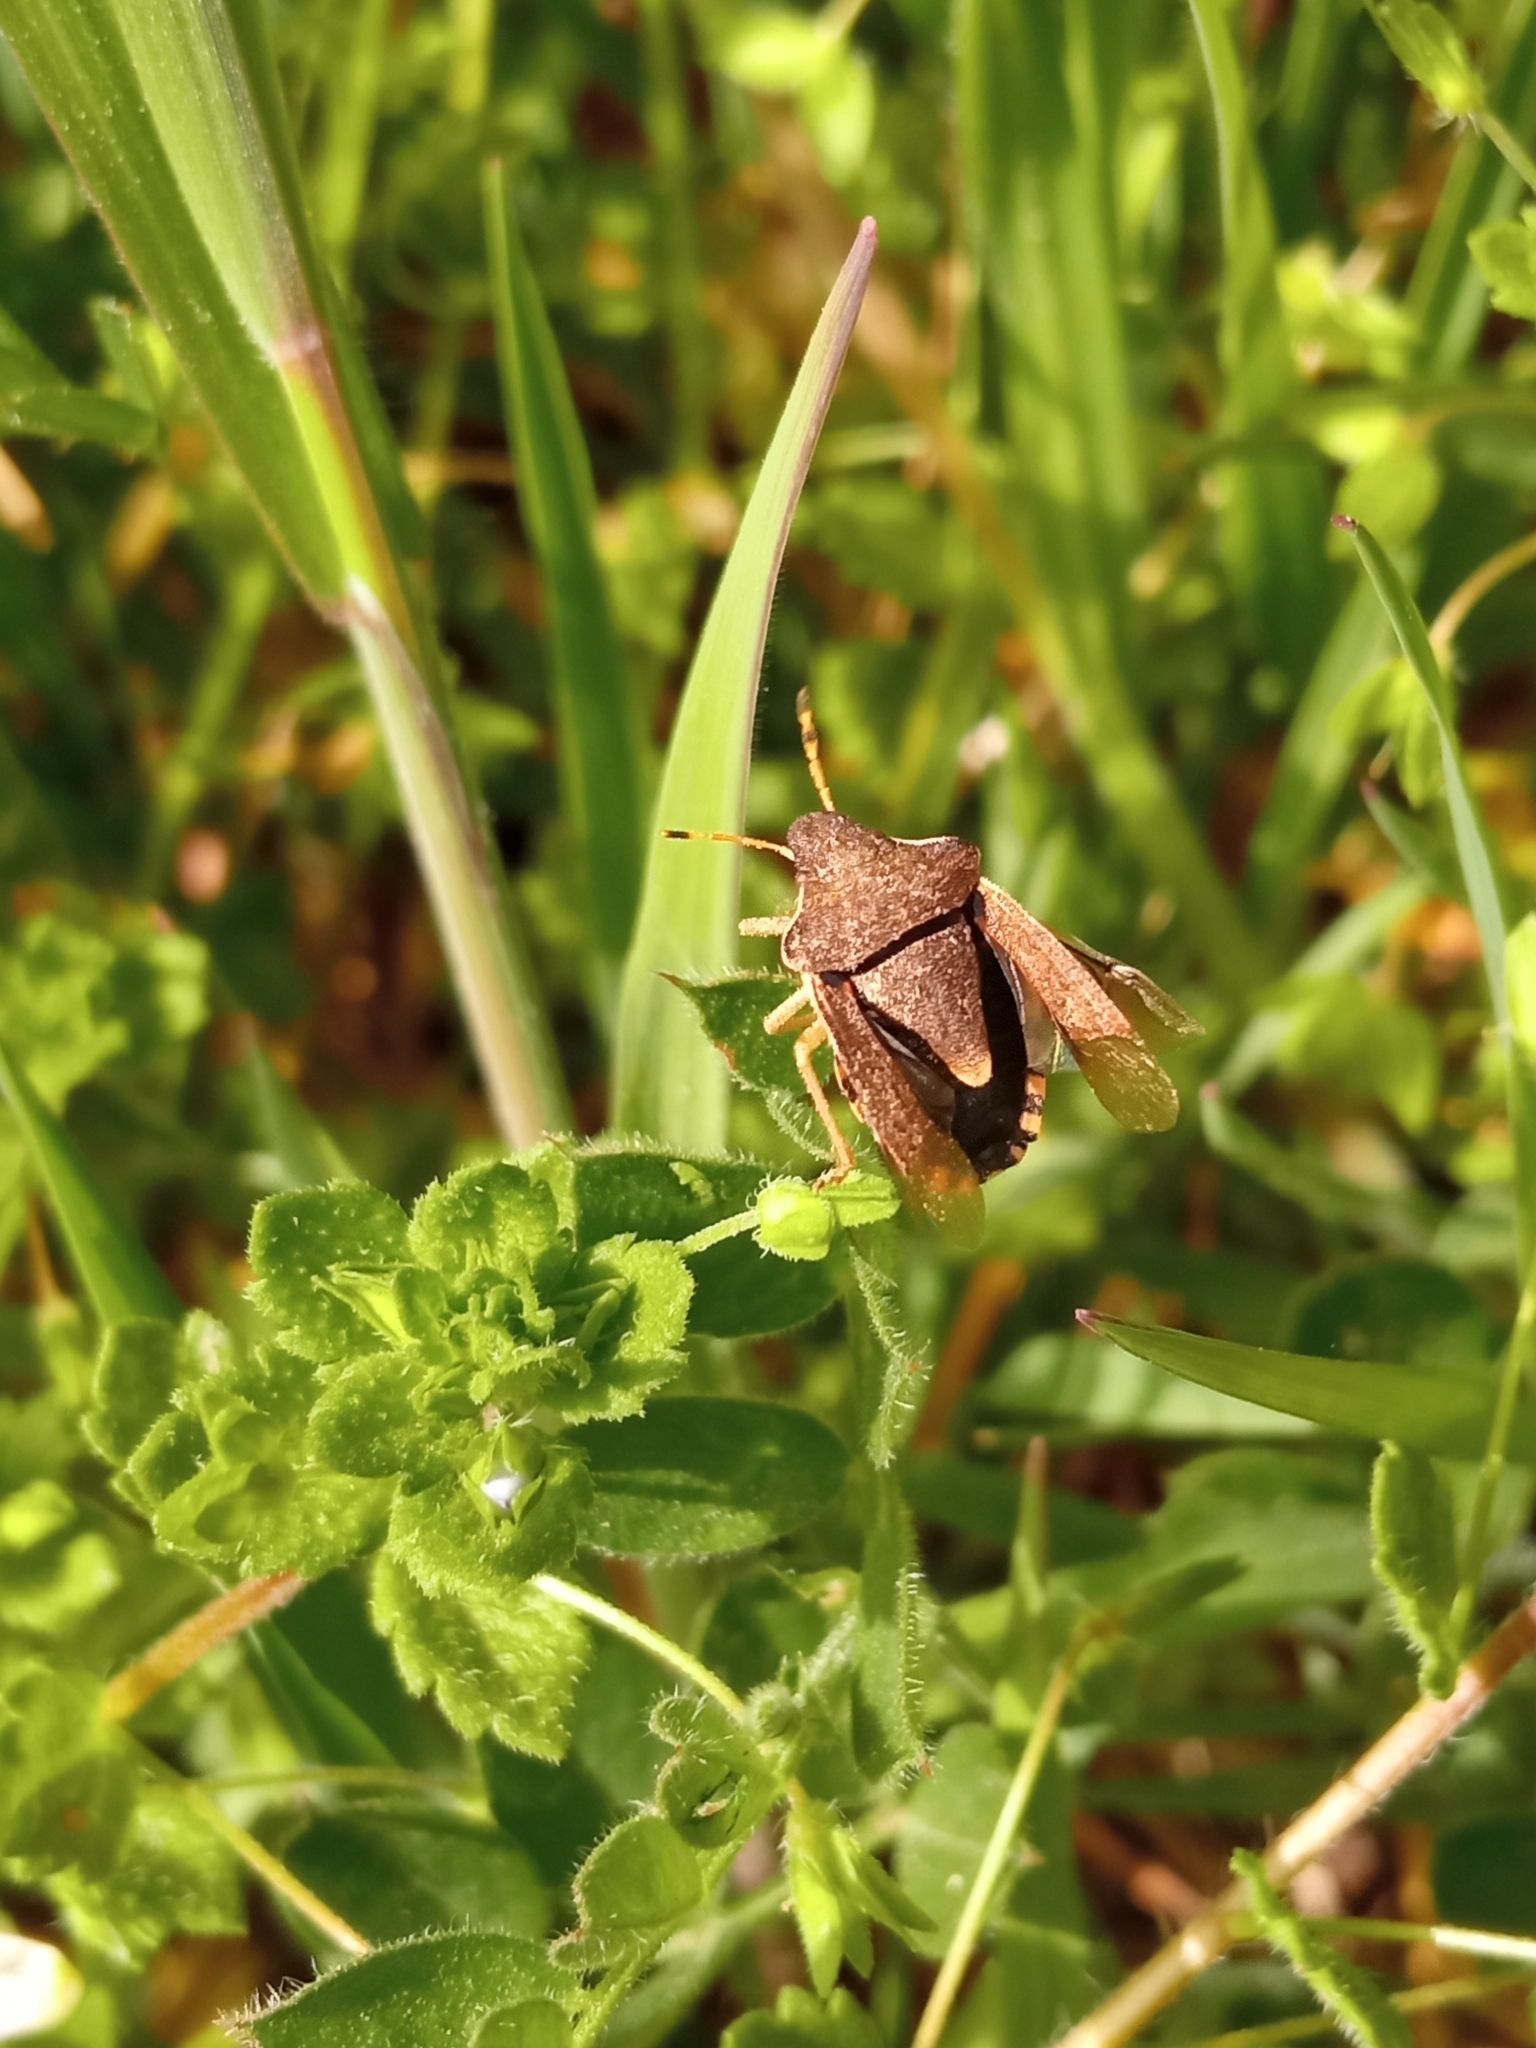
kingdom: Animalia
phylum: Arthropoda
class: Insecta
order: Hemiptera
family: Pentatomidae
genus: Holcostethus
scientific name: Holcostethus strictus
